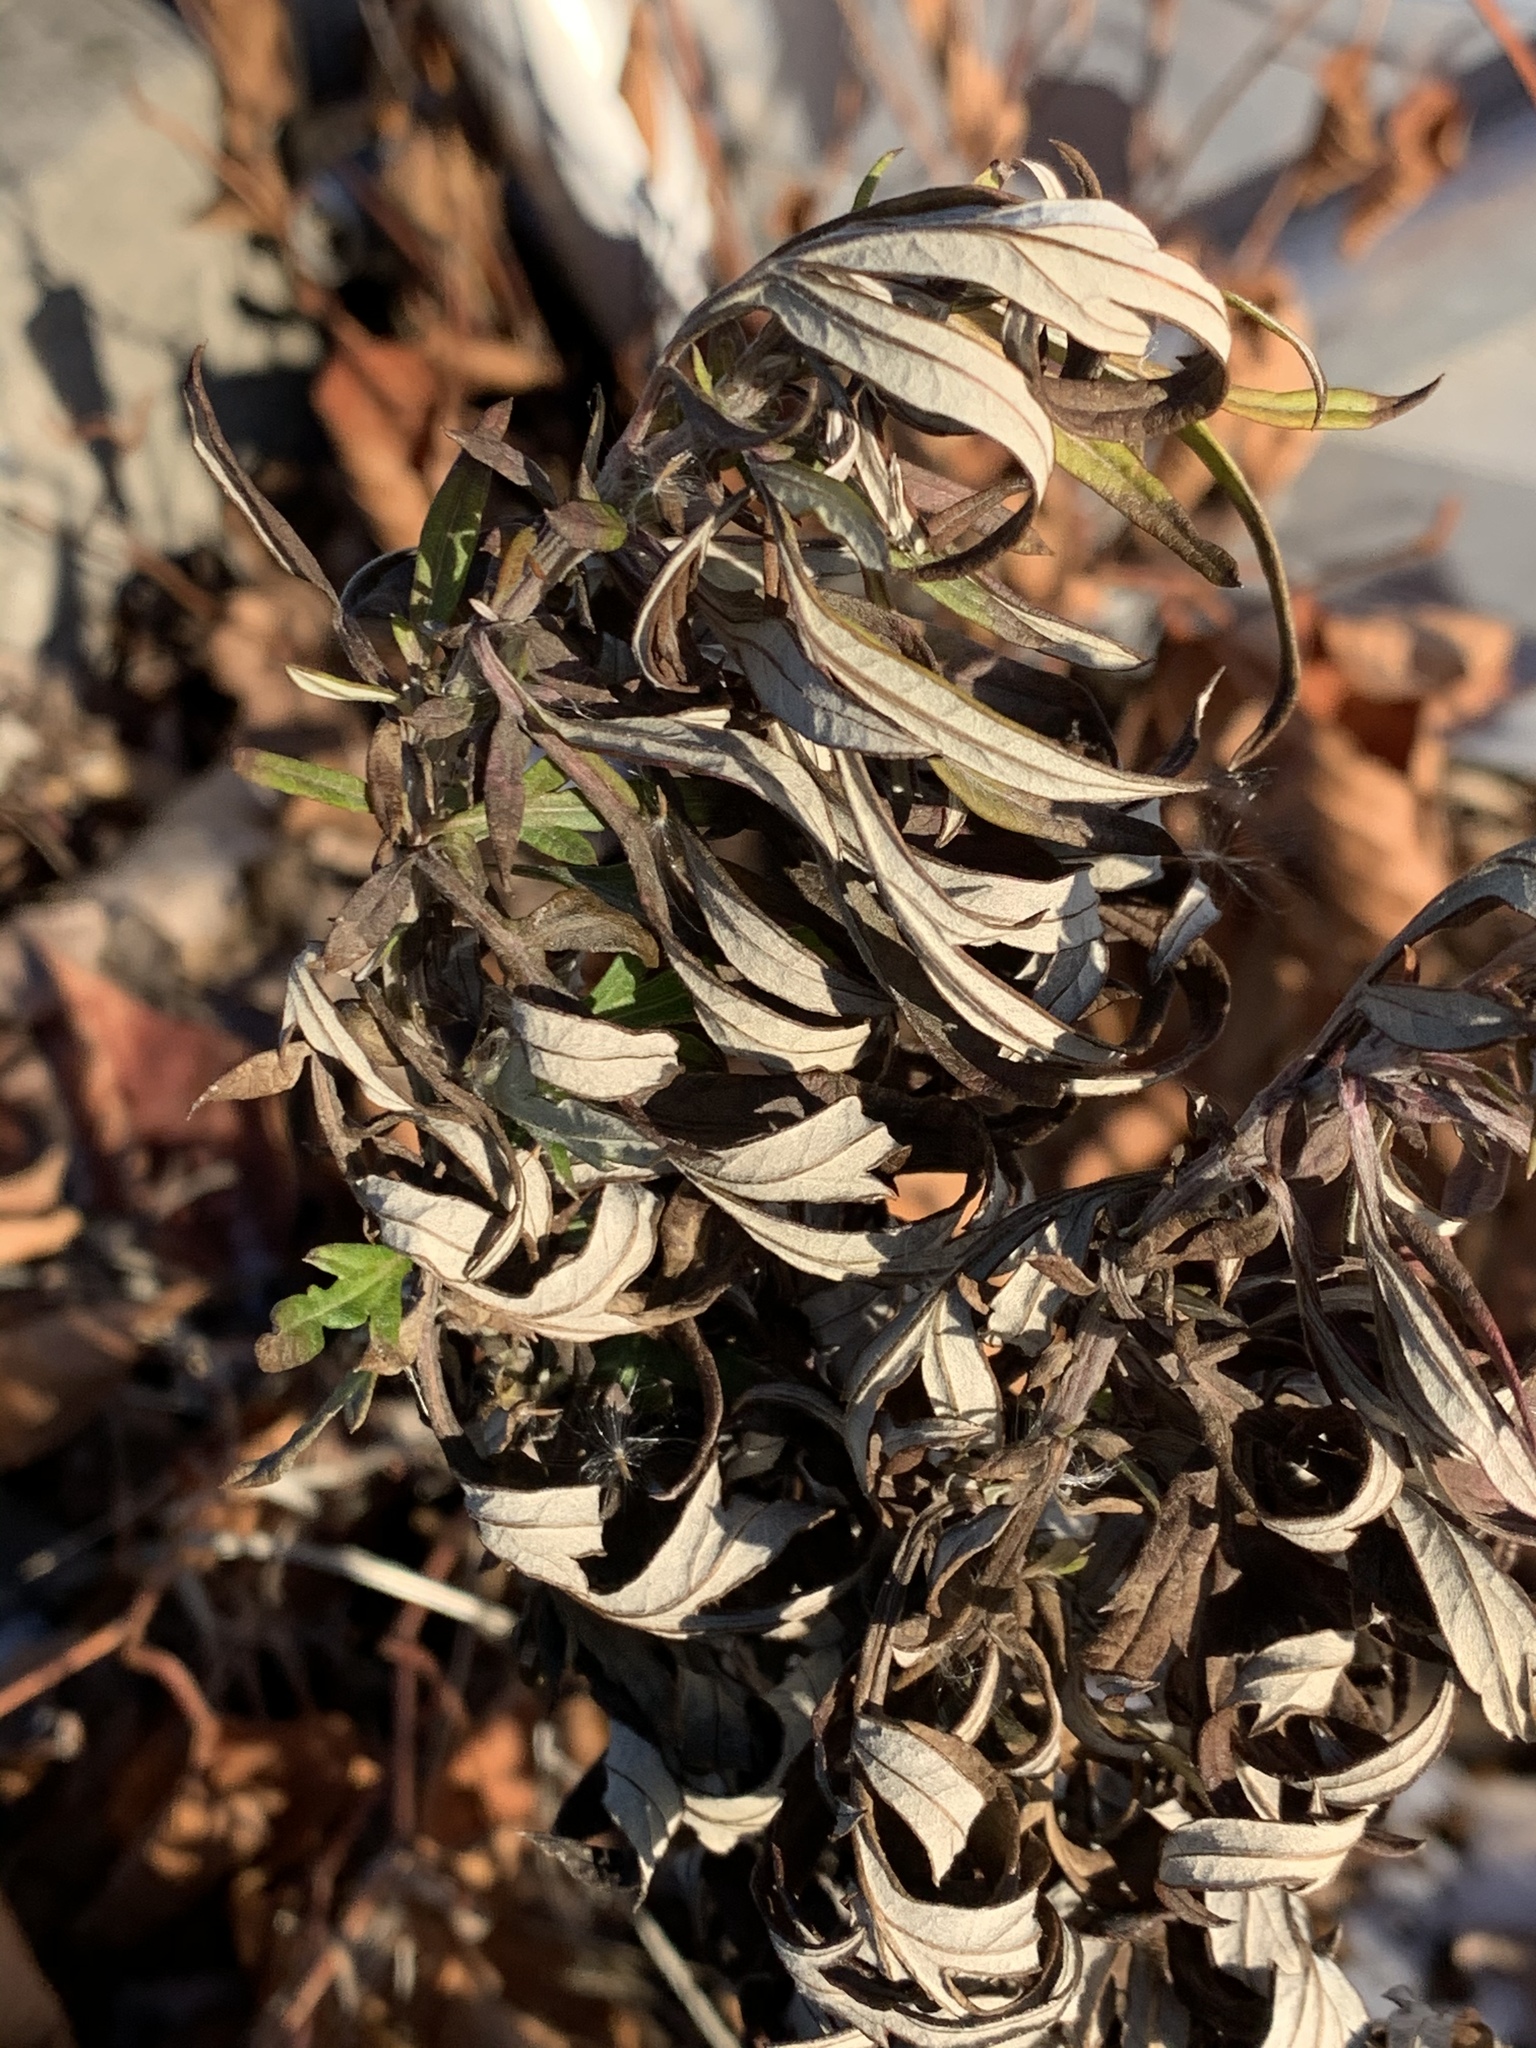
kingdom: Plantae
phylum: Tracheophyta
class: Magnoliopsida
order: Asterales
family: Asteraceae
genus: Artemisia
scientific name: Artemisia vulgaris
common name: Mugwort
